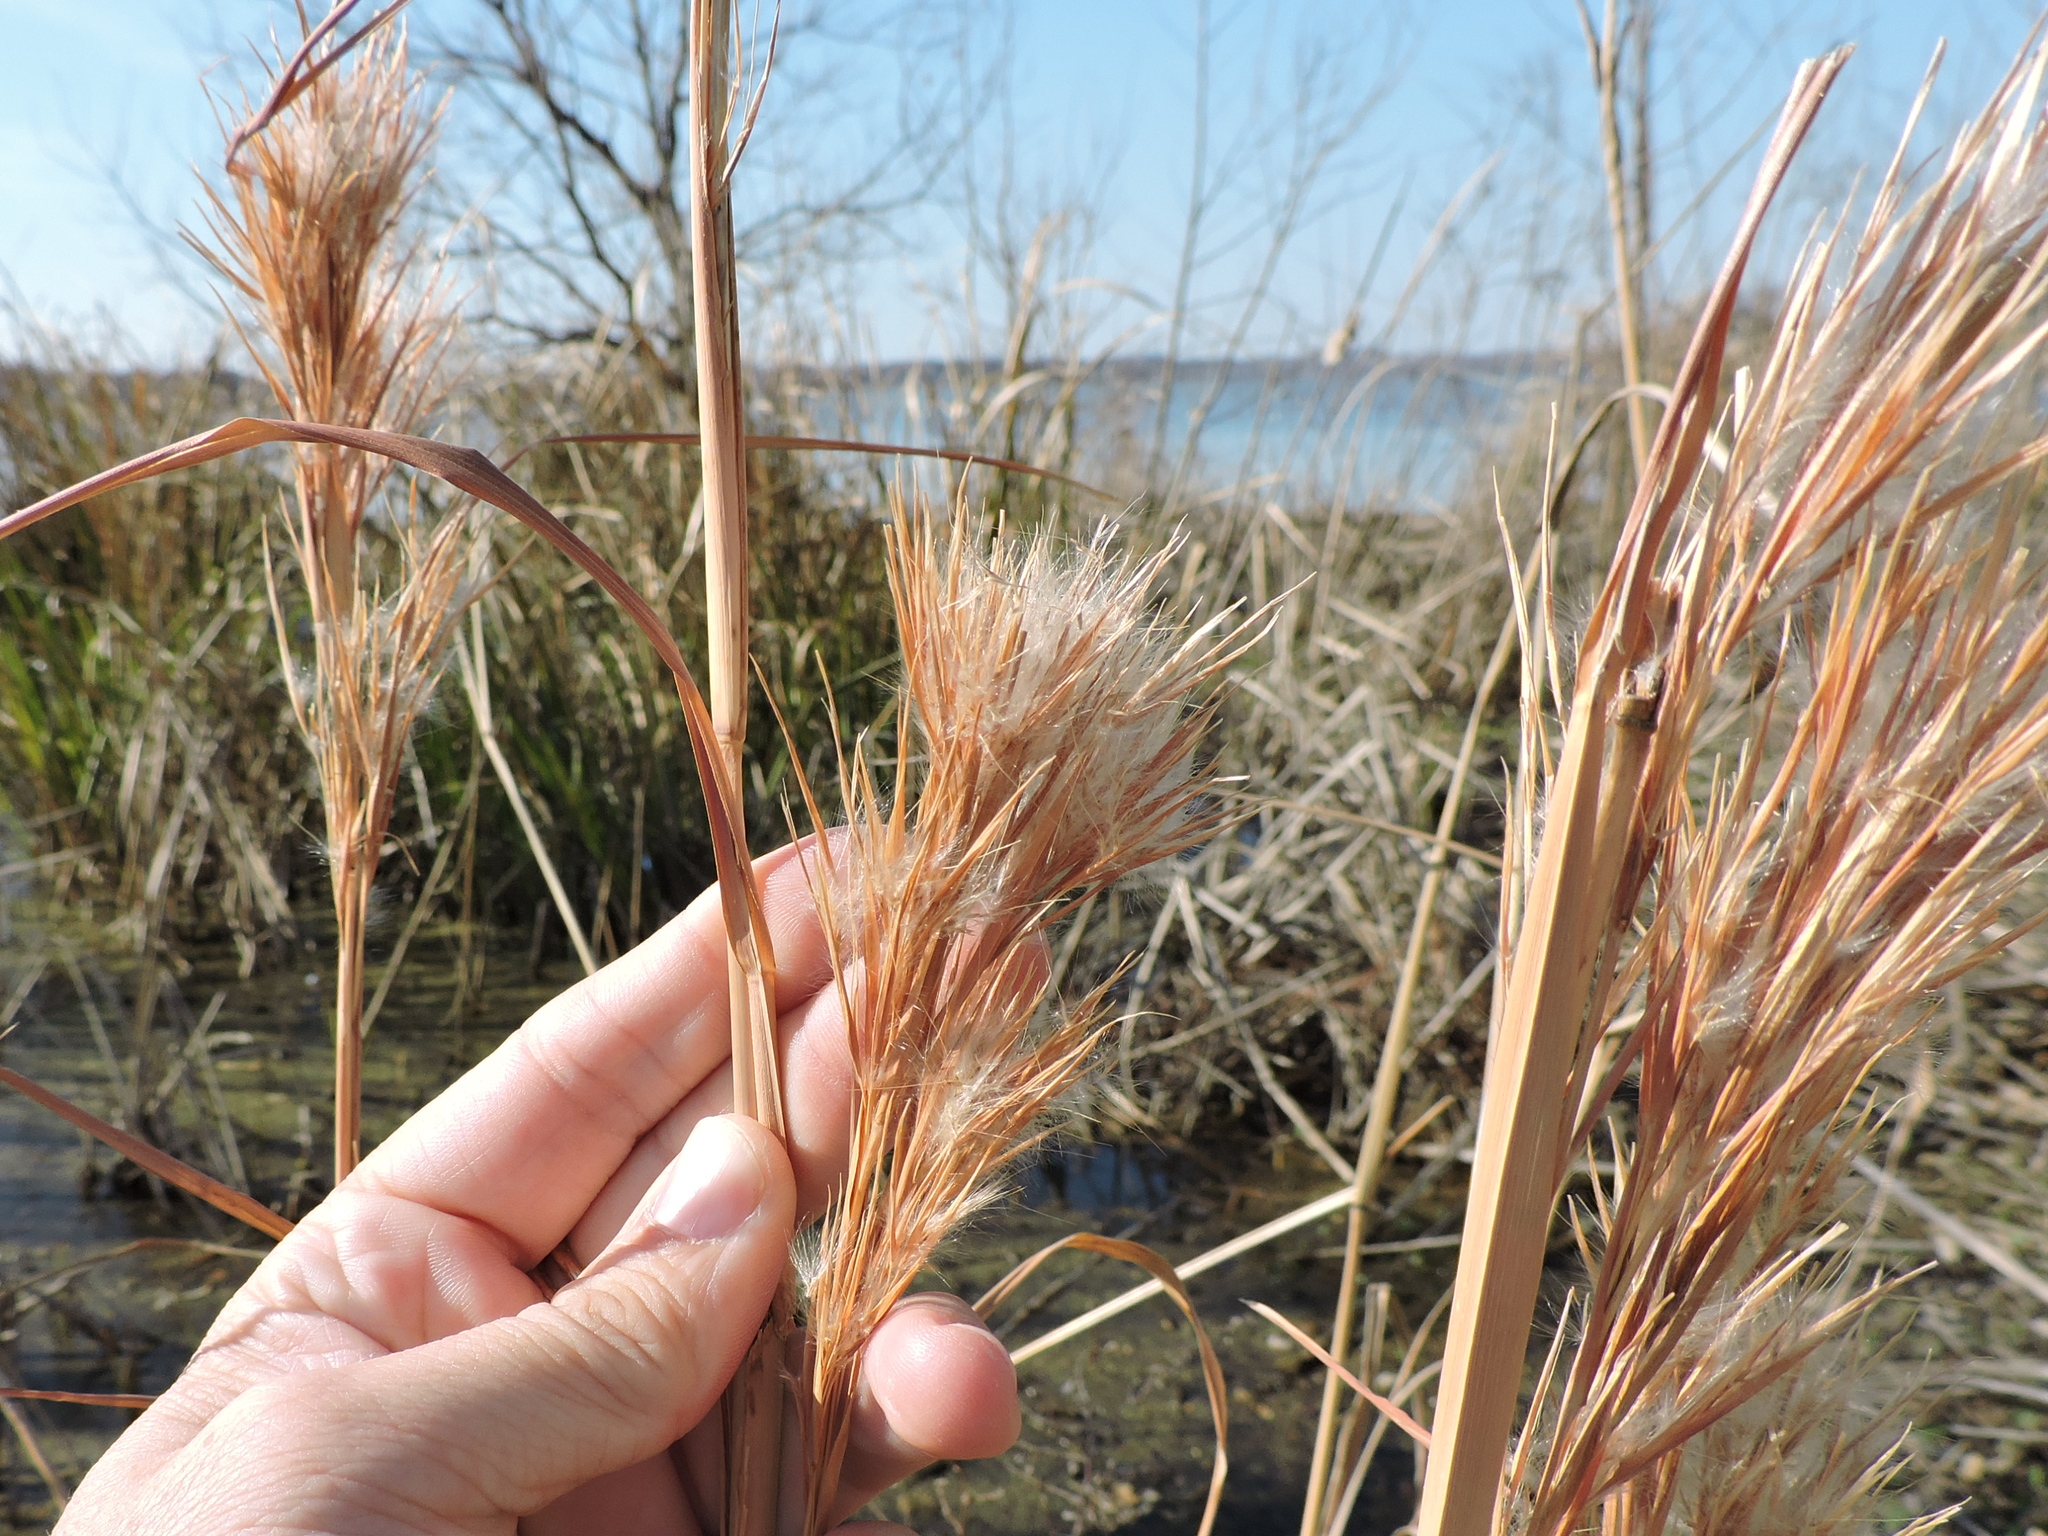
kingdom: Plantae
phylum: Tracheophyta
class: Liliopsida
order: Poales
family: Poaceae
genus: Andropogon
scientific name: Andropogon tenuispatheus
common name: Bushy bluestem
